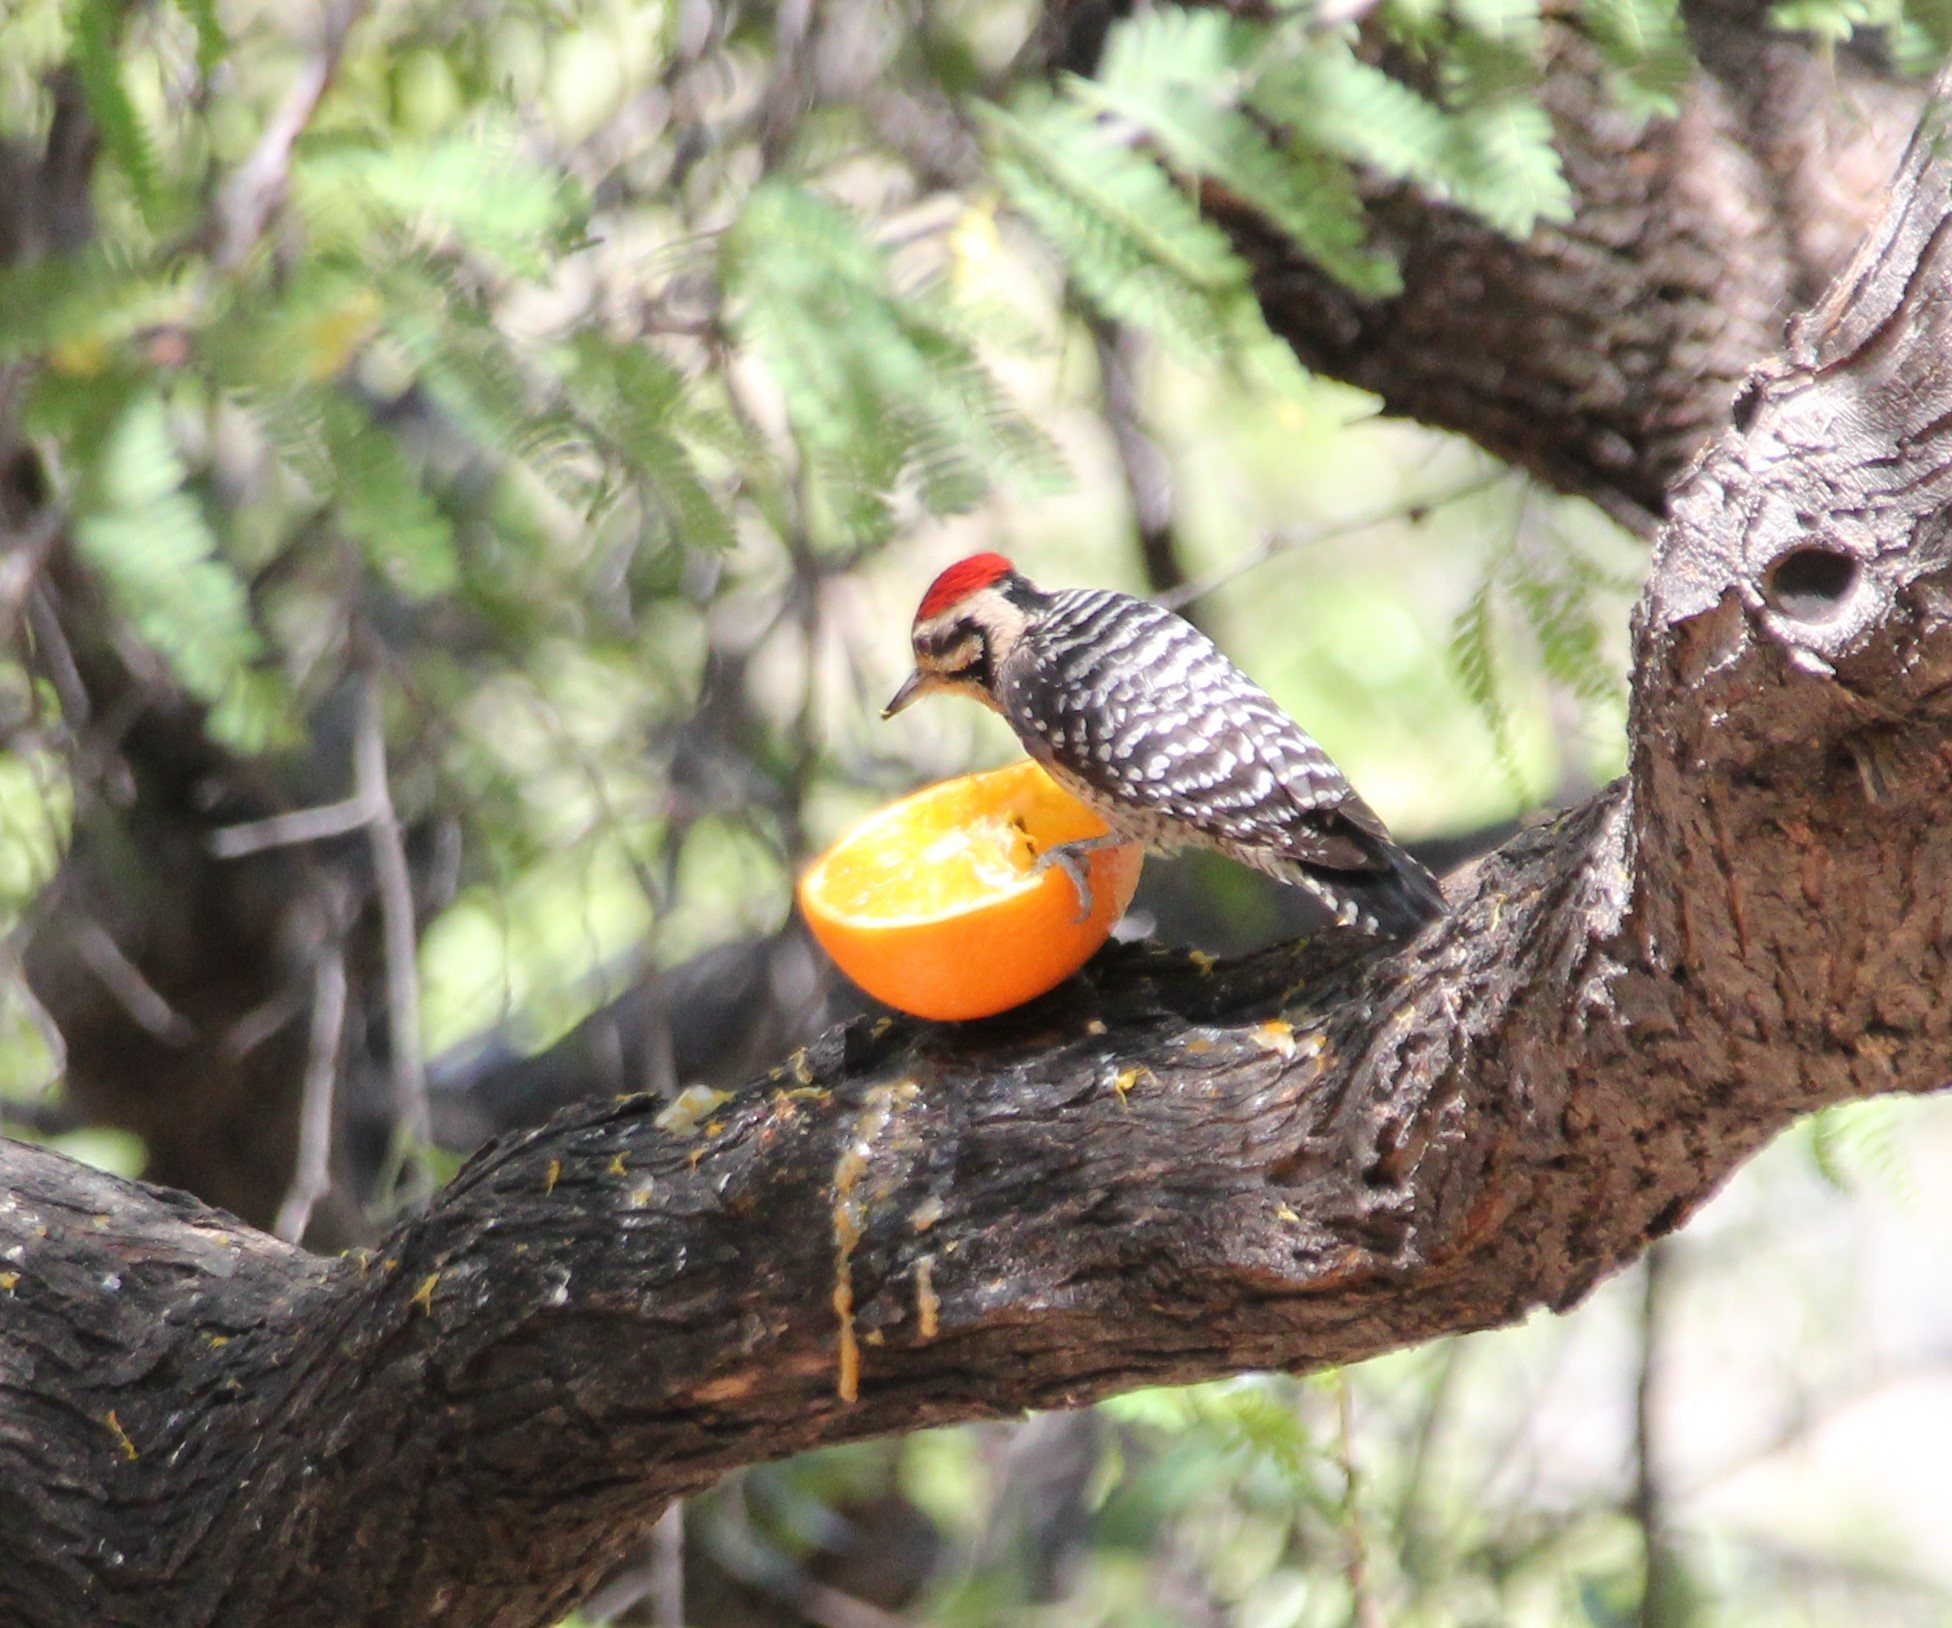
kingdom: Animalia
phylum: Chordata
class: Aves
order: Piciformes
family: Picidae
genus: Dryobates
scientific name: Dryobates scalaris
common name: Ladder-backed woodpecker
